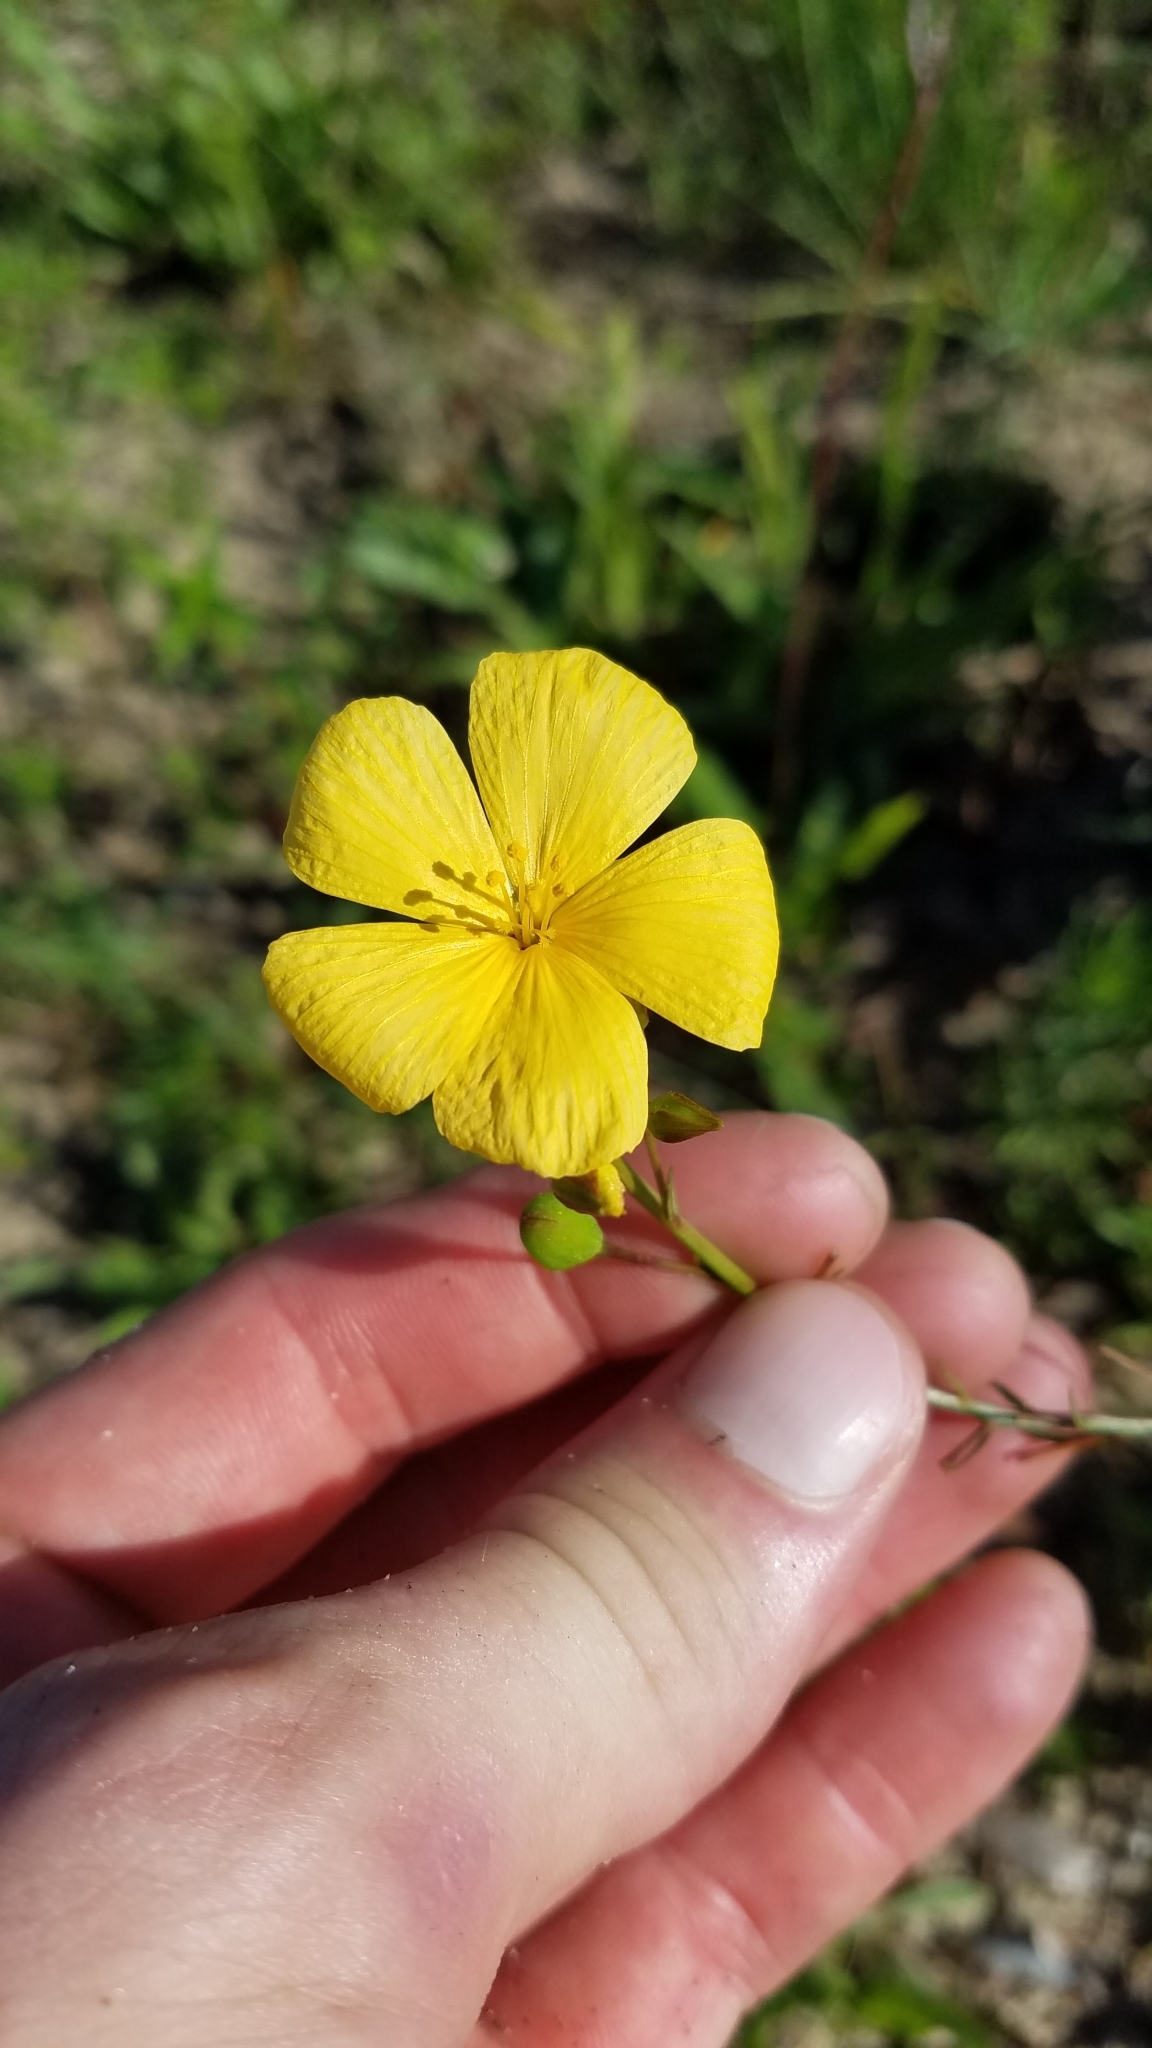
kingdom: Plantae
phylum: Tracheophyta
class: Magnoliopsida
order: Malpighiales
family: Turneraceae
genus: Piriqueta
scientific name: Piriqueta cistoides
